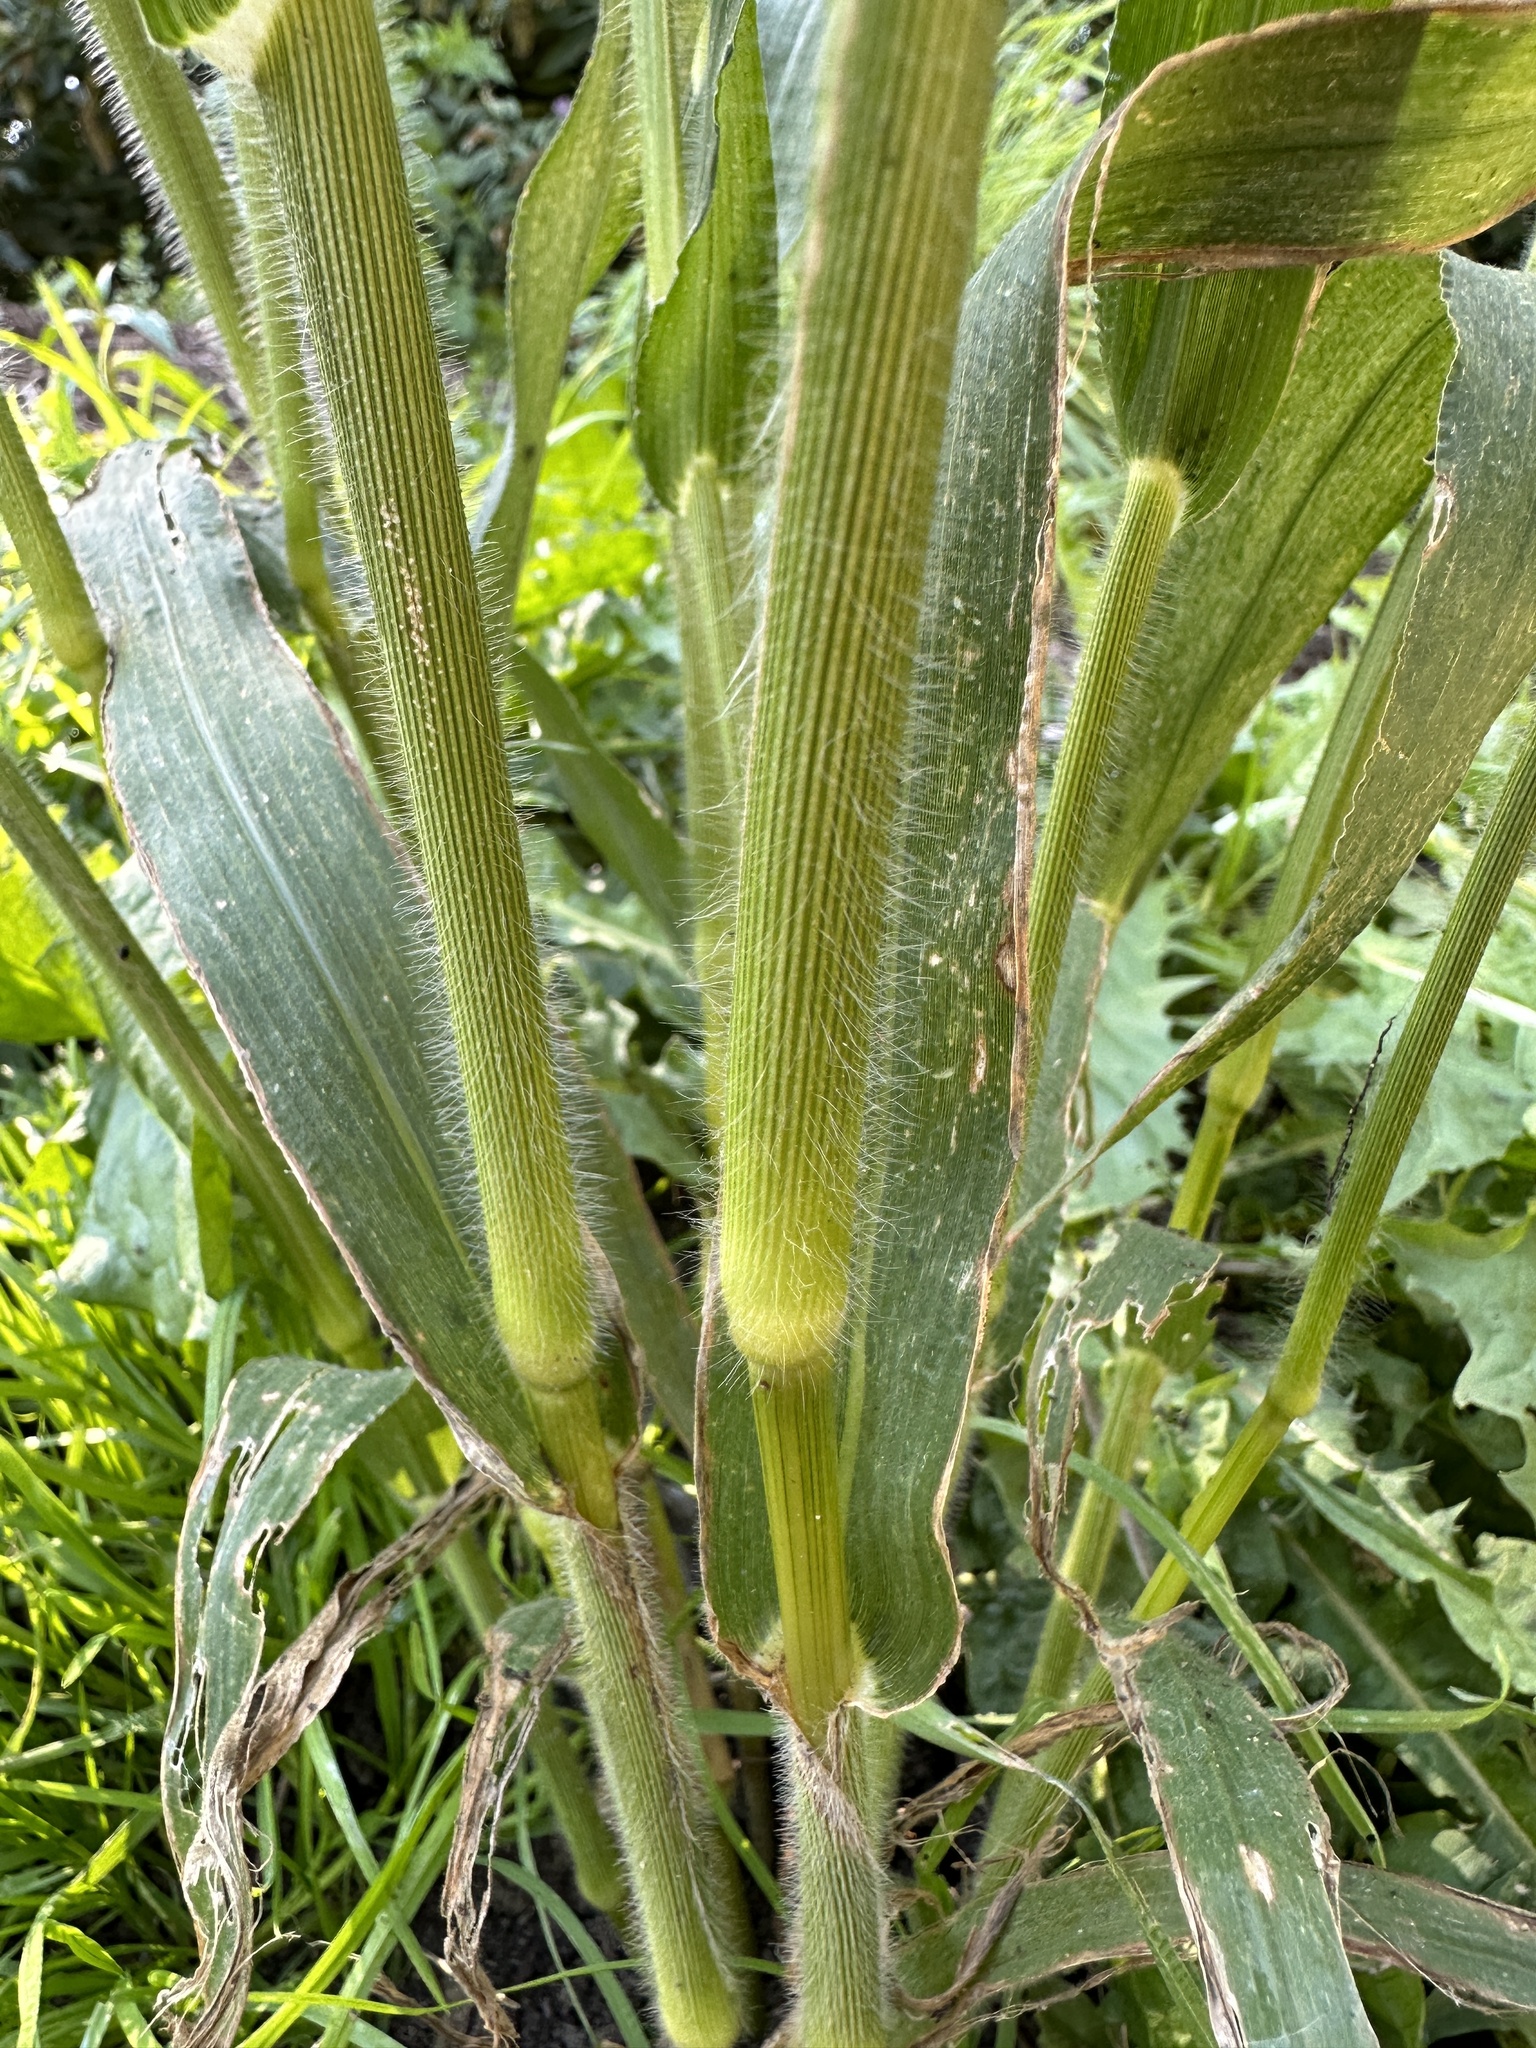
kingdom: Plantae
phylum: Tracheophyta
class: Liliopsida
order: Poales
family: Poaceae
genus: Panicum
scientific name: Panicum miliaceum
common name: Common millet
